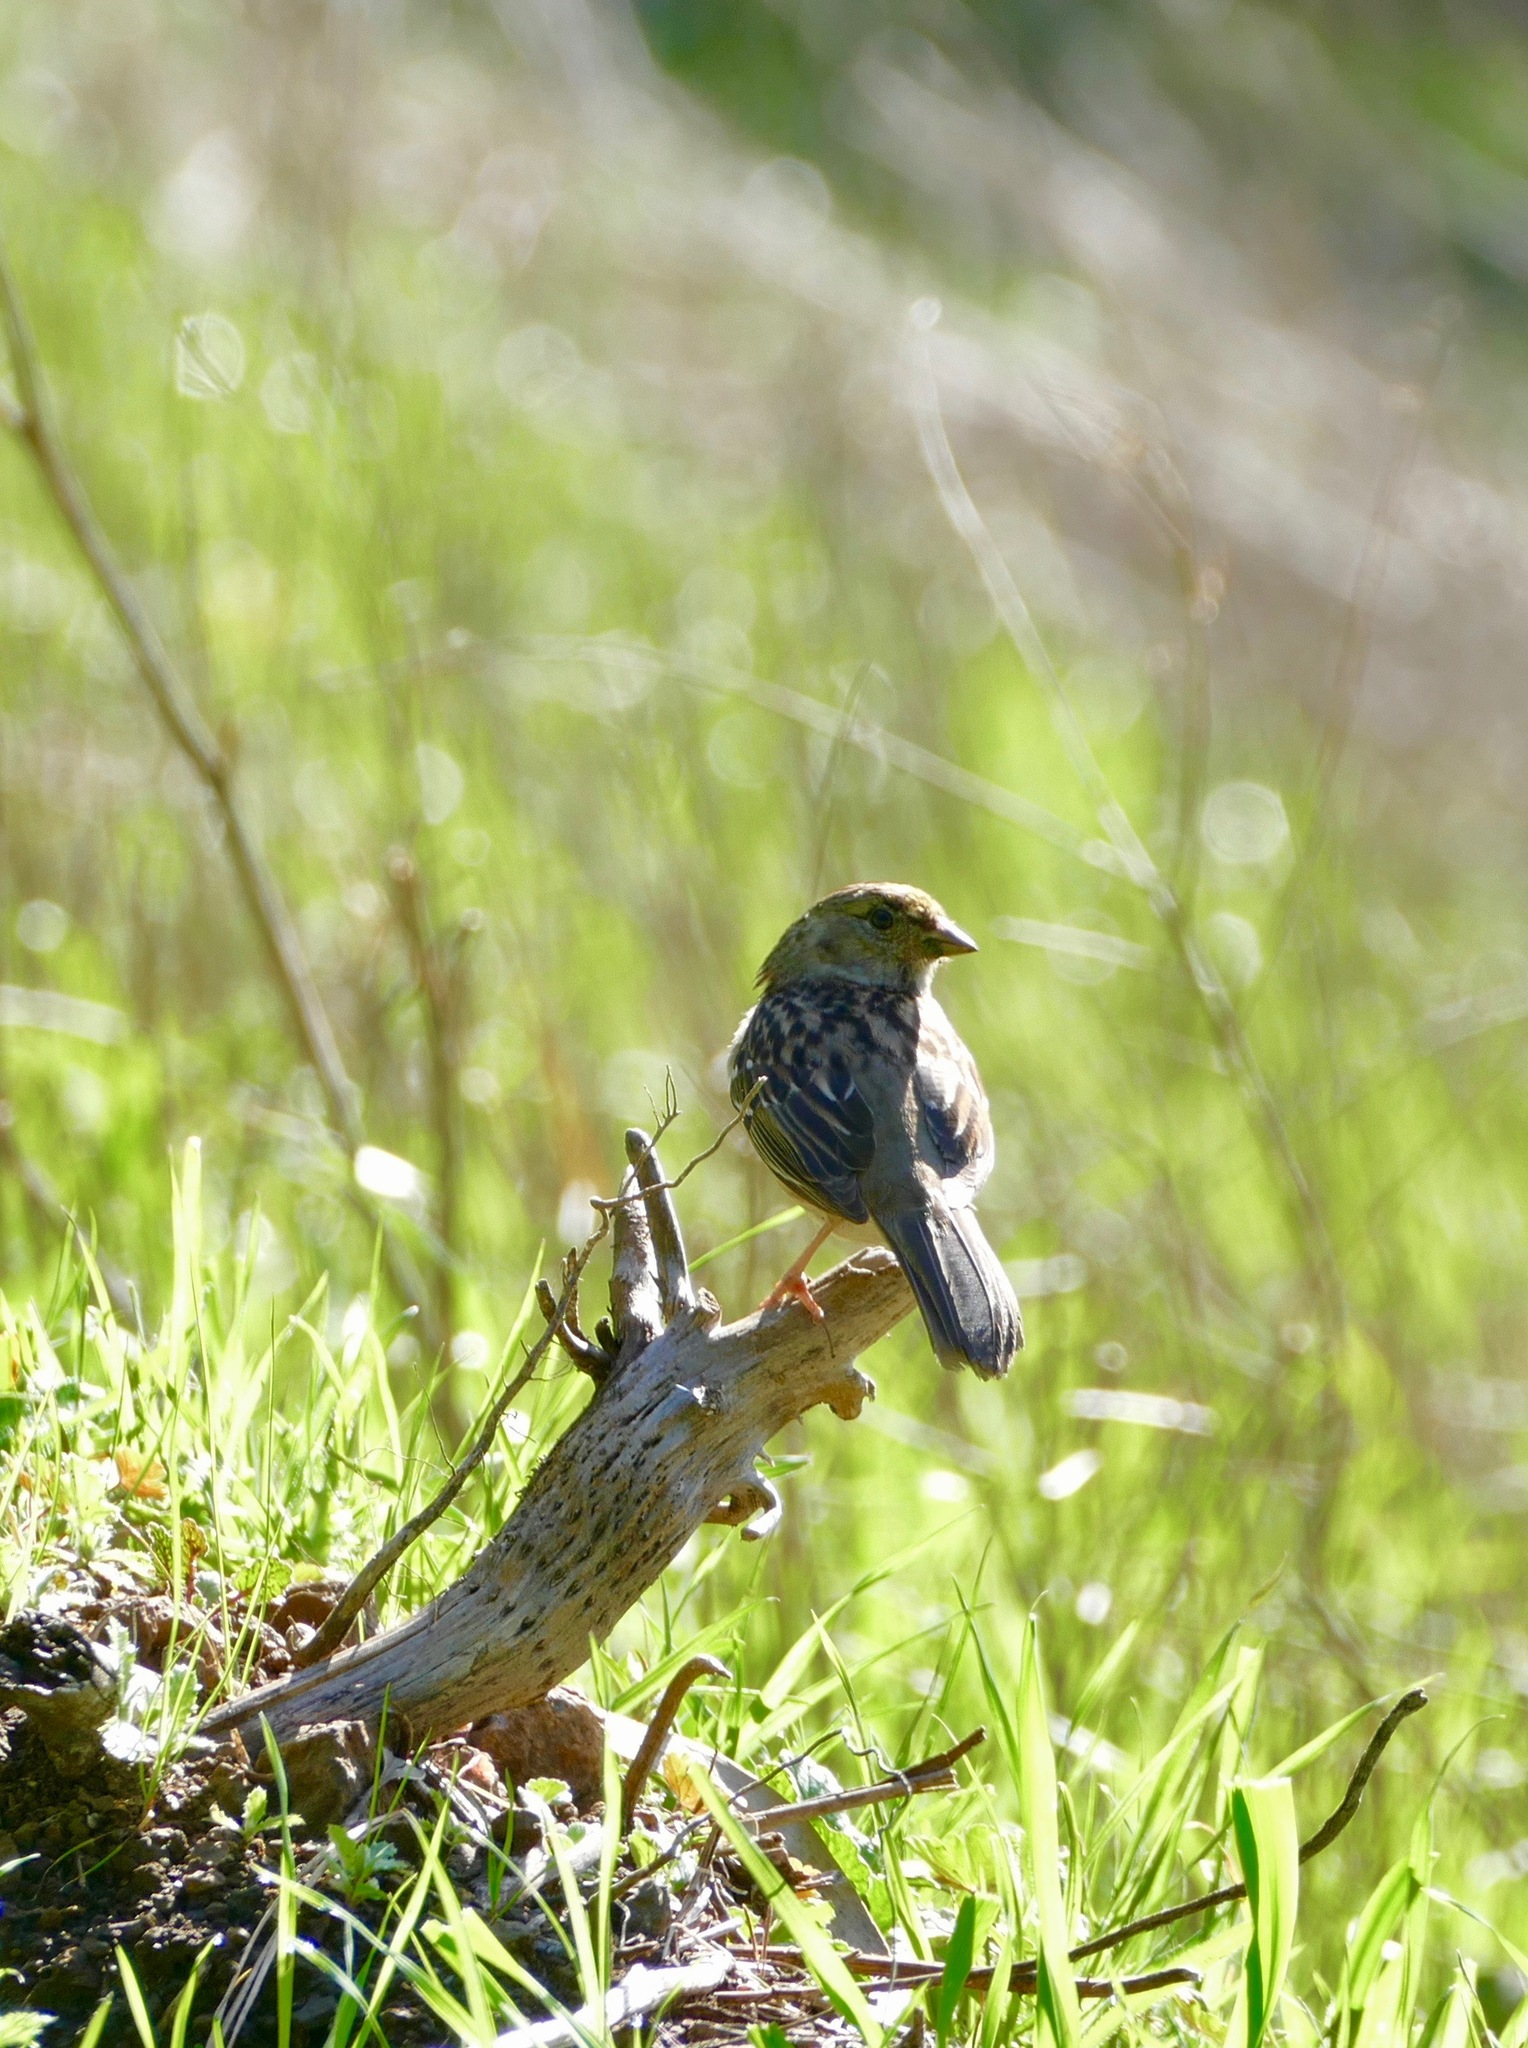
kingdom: Animalia
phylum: Chordata
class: Aves
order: Passeriformes
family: Passerellidae
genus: Zonotrichia
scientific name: Zonotrichia atricapilla
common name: Golden-crowned sparrow
